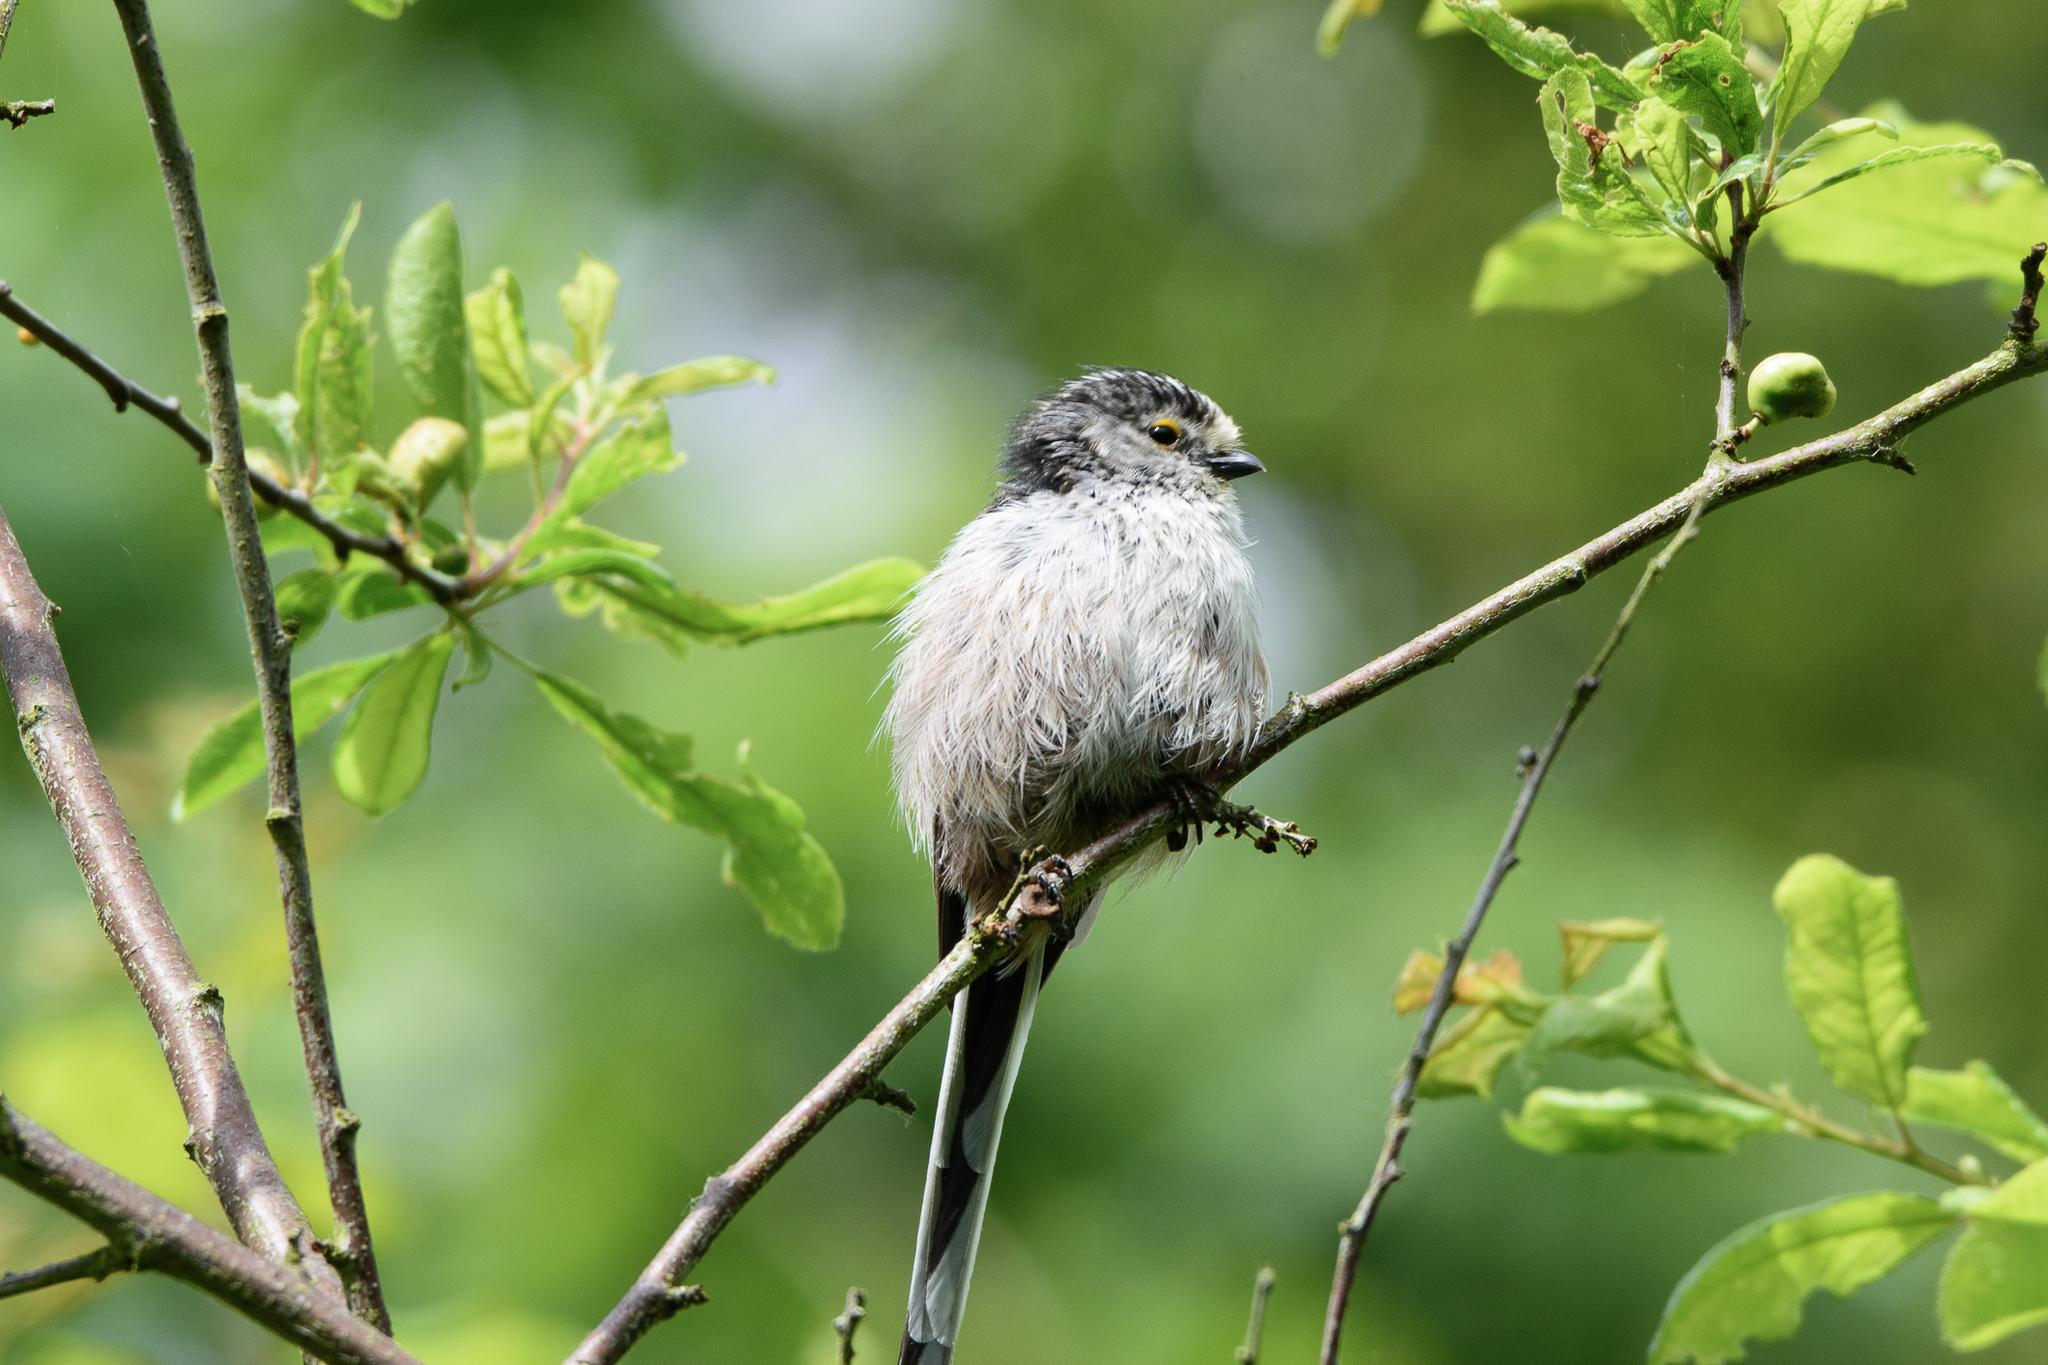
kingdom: Animalia
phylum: Chordata
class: Aves
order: Passeriformes
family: Aegithalidae
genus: Aegithalos
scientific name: Aegithalos caudatus
